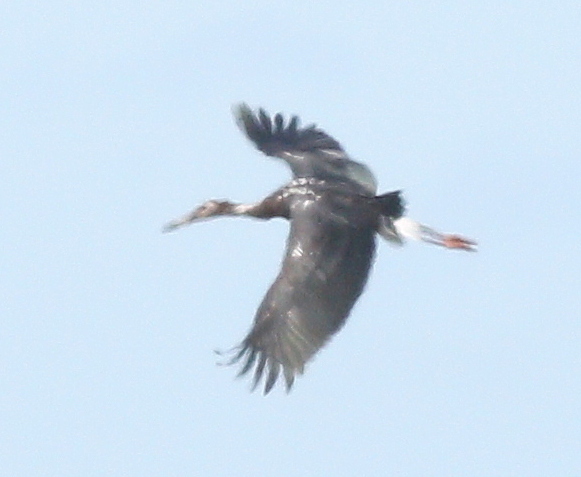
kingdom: Animalia
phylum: Chordata
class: Aves
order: Ciconiiformes
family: Ciconiidae
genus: Ciconia
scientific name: Ciconia maguari
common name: Maguari stork
